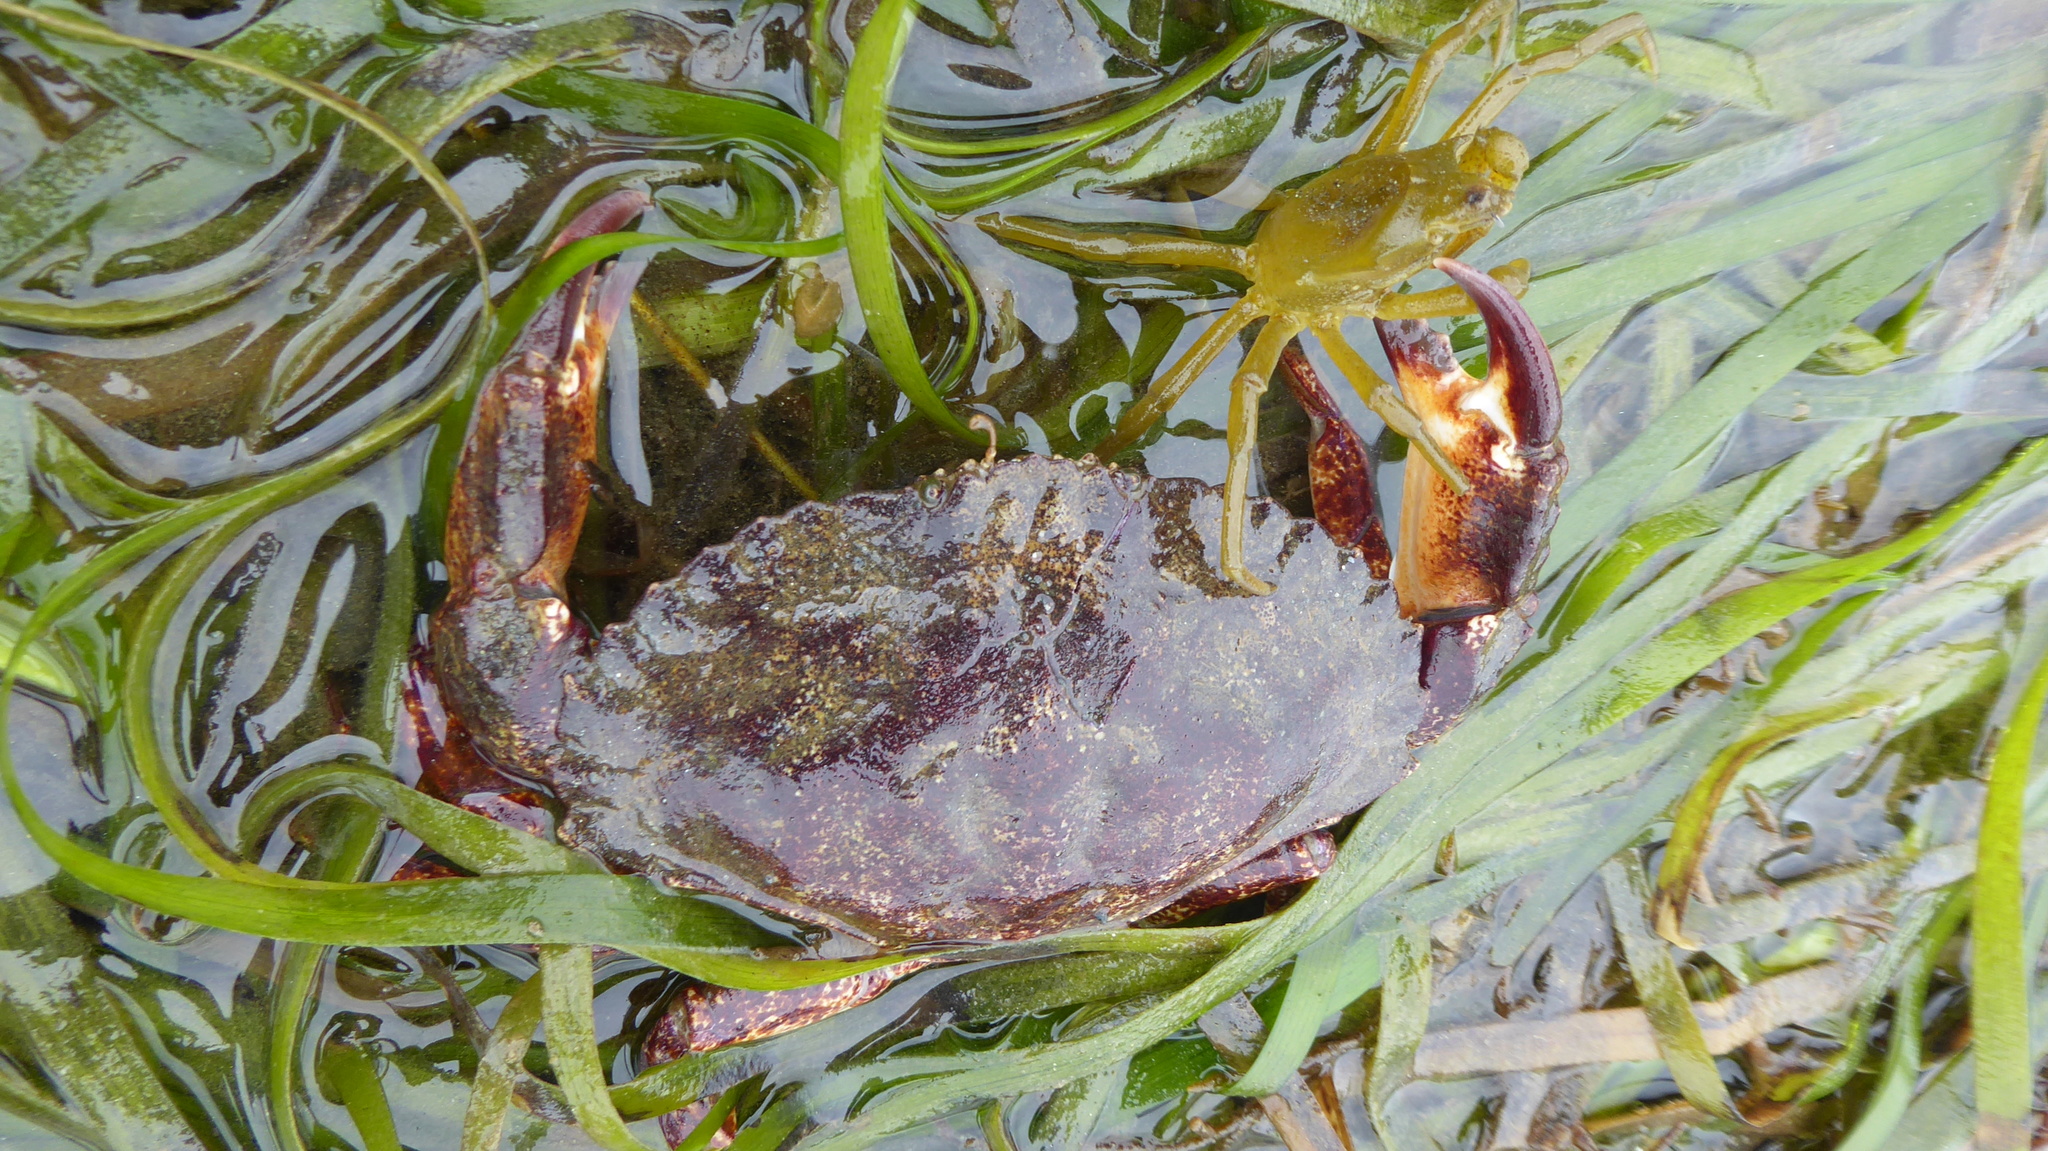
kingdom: Animalia
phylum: Arthropoda
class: Malacostraca
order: Decapoda
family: Cancridae
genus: Cancer
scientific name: Cancer productus
